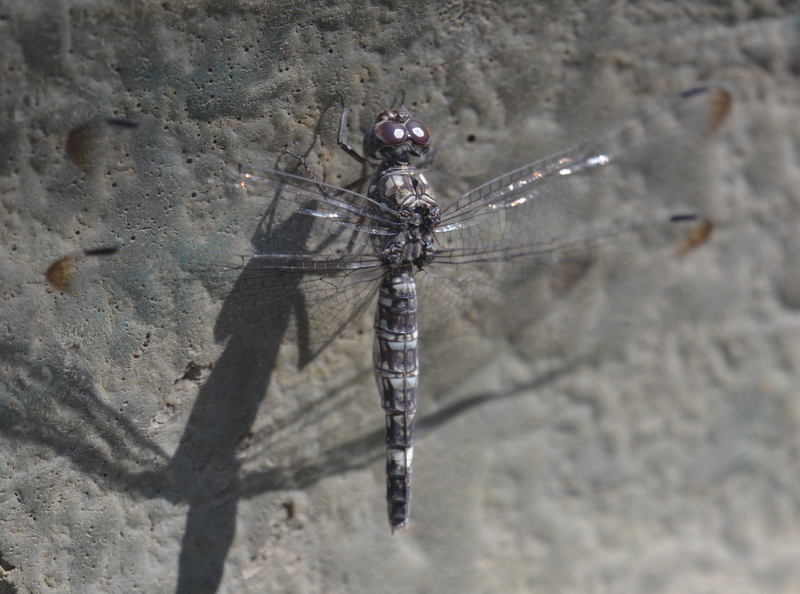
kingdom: Animalia
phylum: Arthropoda
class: Insecta
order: Odonata
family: Libellulidae
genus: Bradinopyga
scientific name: Bradinopyga cornuta
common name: Flecked wall-skimmer
